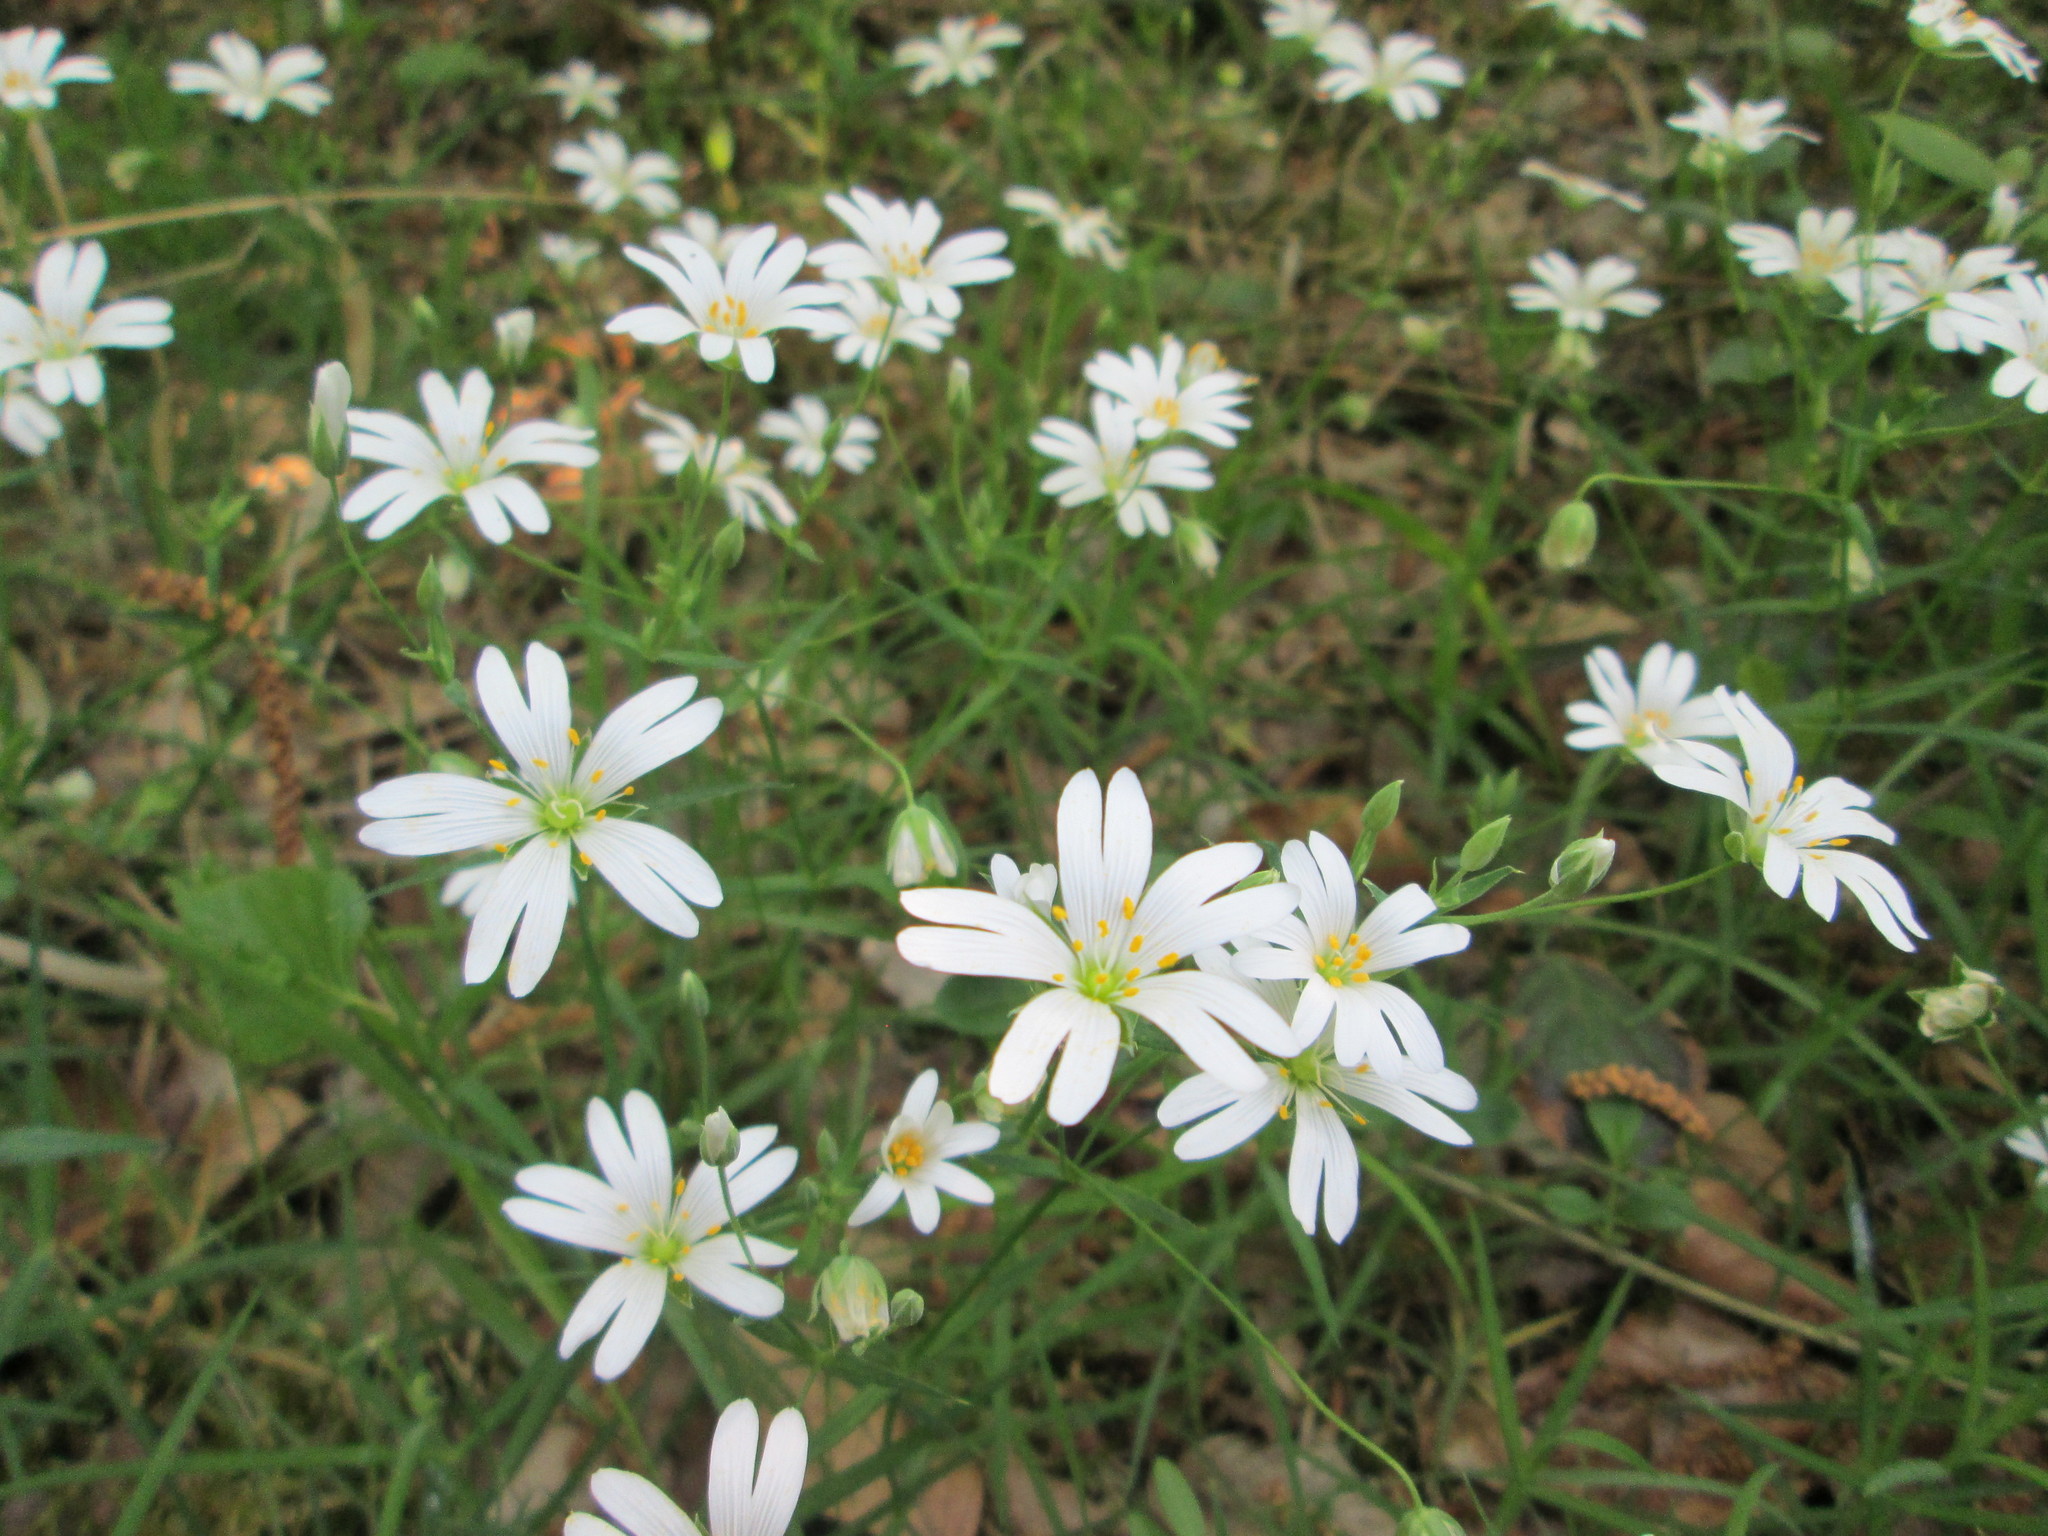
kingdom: Plantae
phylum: Tracheophyta
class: Magnoliopsida
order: Caryophyllales
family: Caryophyllaceae
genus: Rabelera
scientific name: Rabelera holostea
